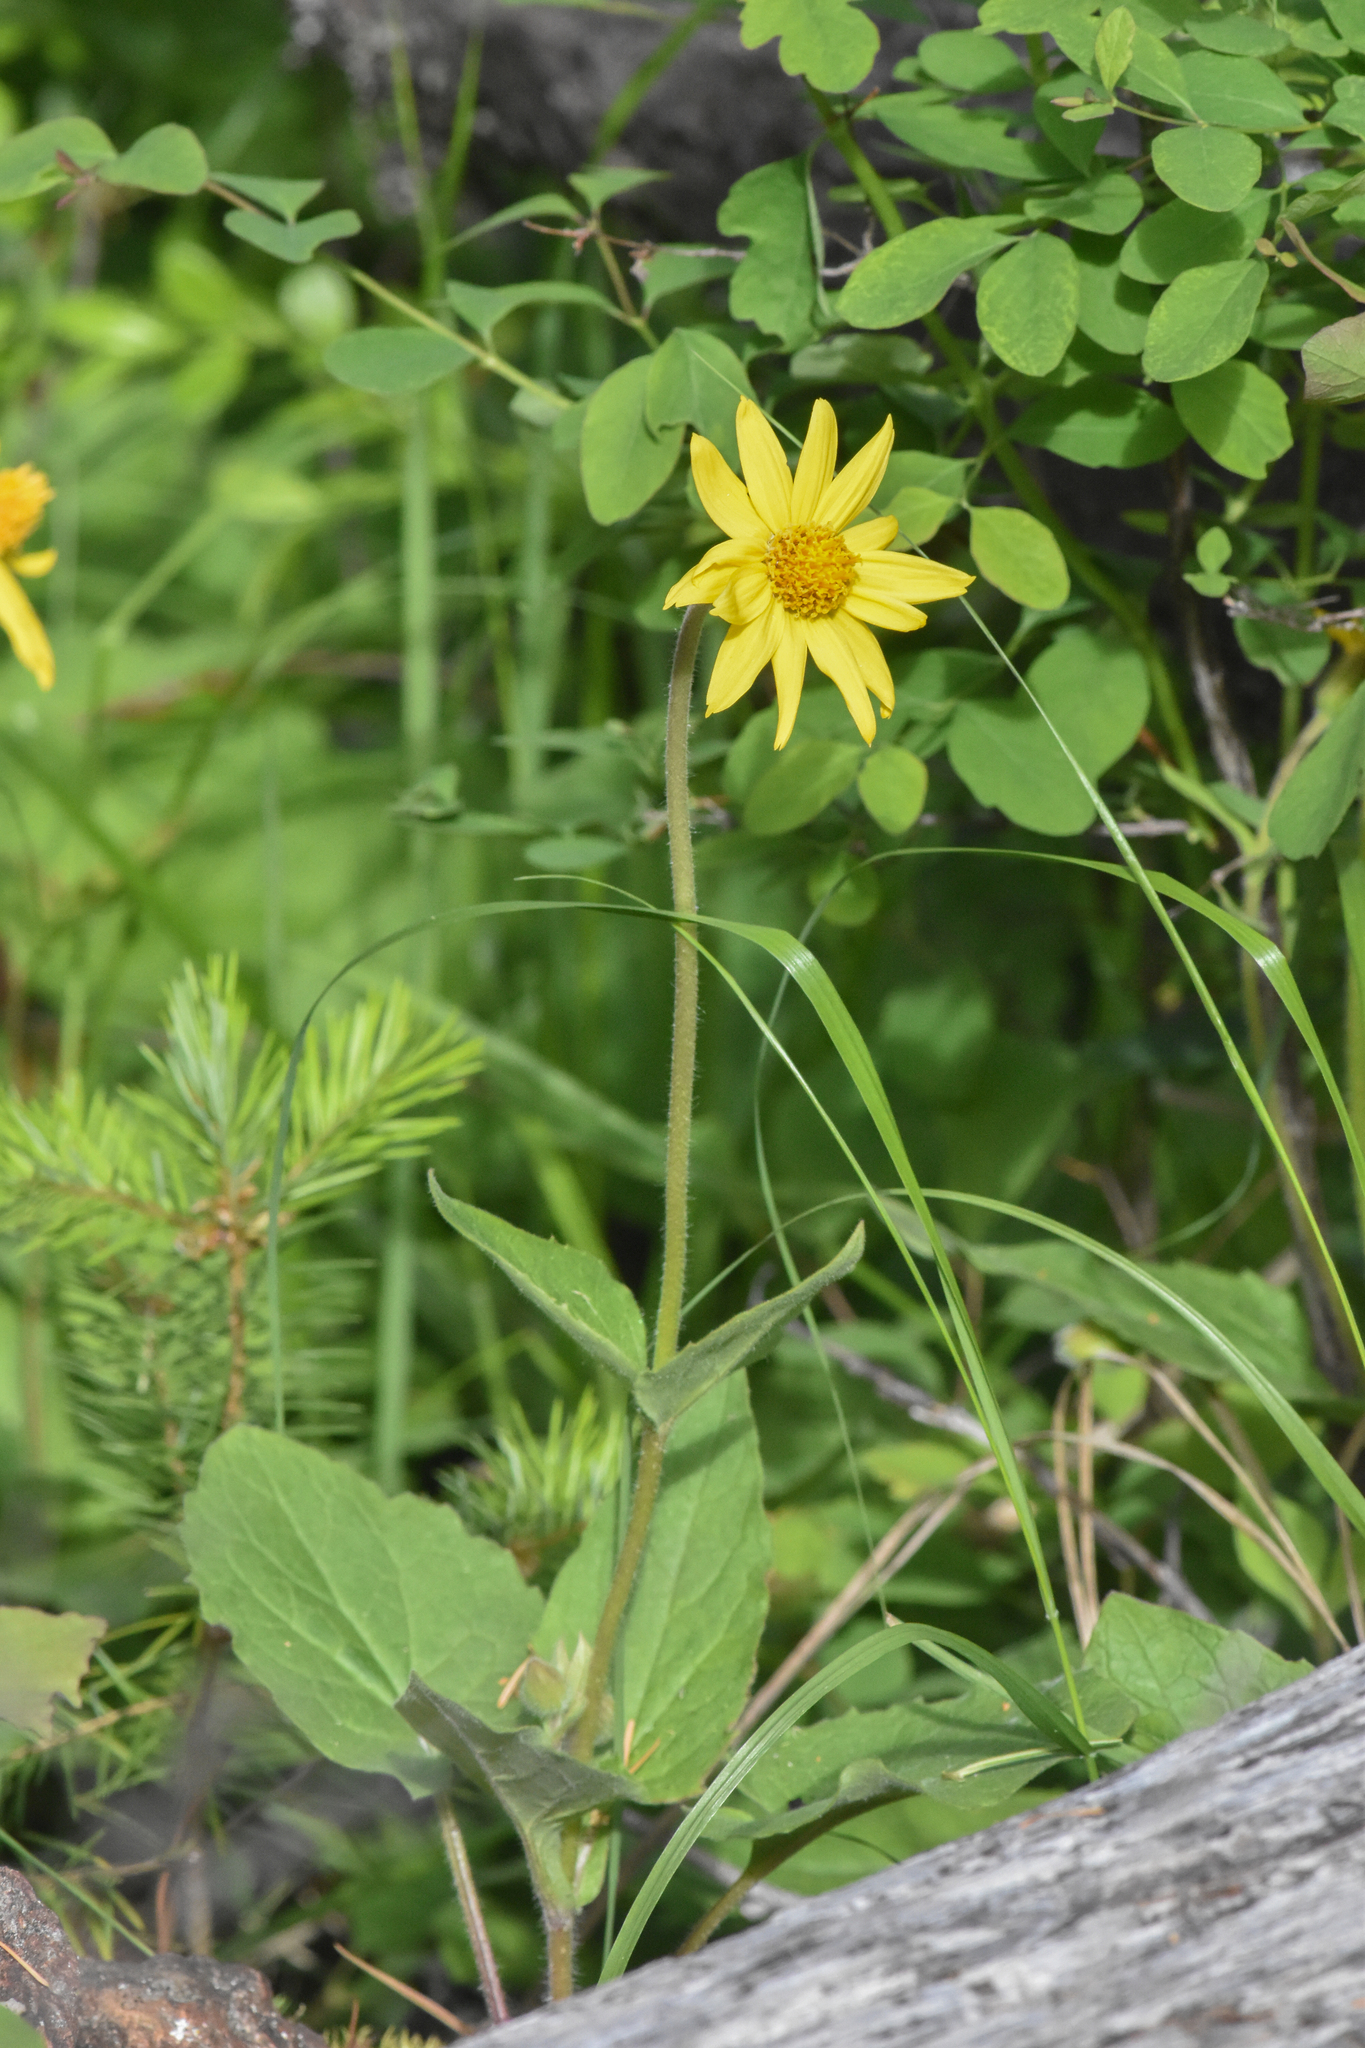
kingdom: Plantae
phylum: Tracheophyta
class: Magnoliopsida
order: Asterales
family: Asteraceae
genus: Arnica
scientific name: Arnica cordifolia
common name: Heart-leaf arnica
